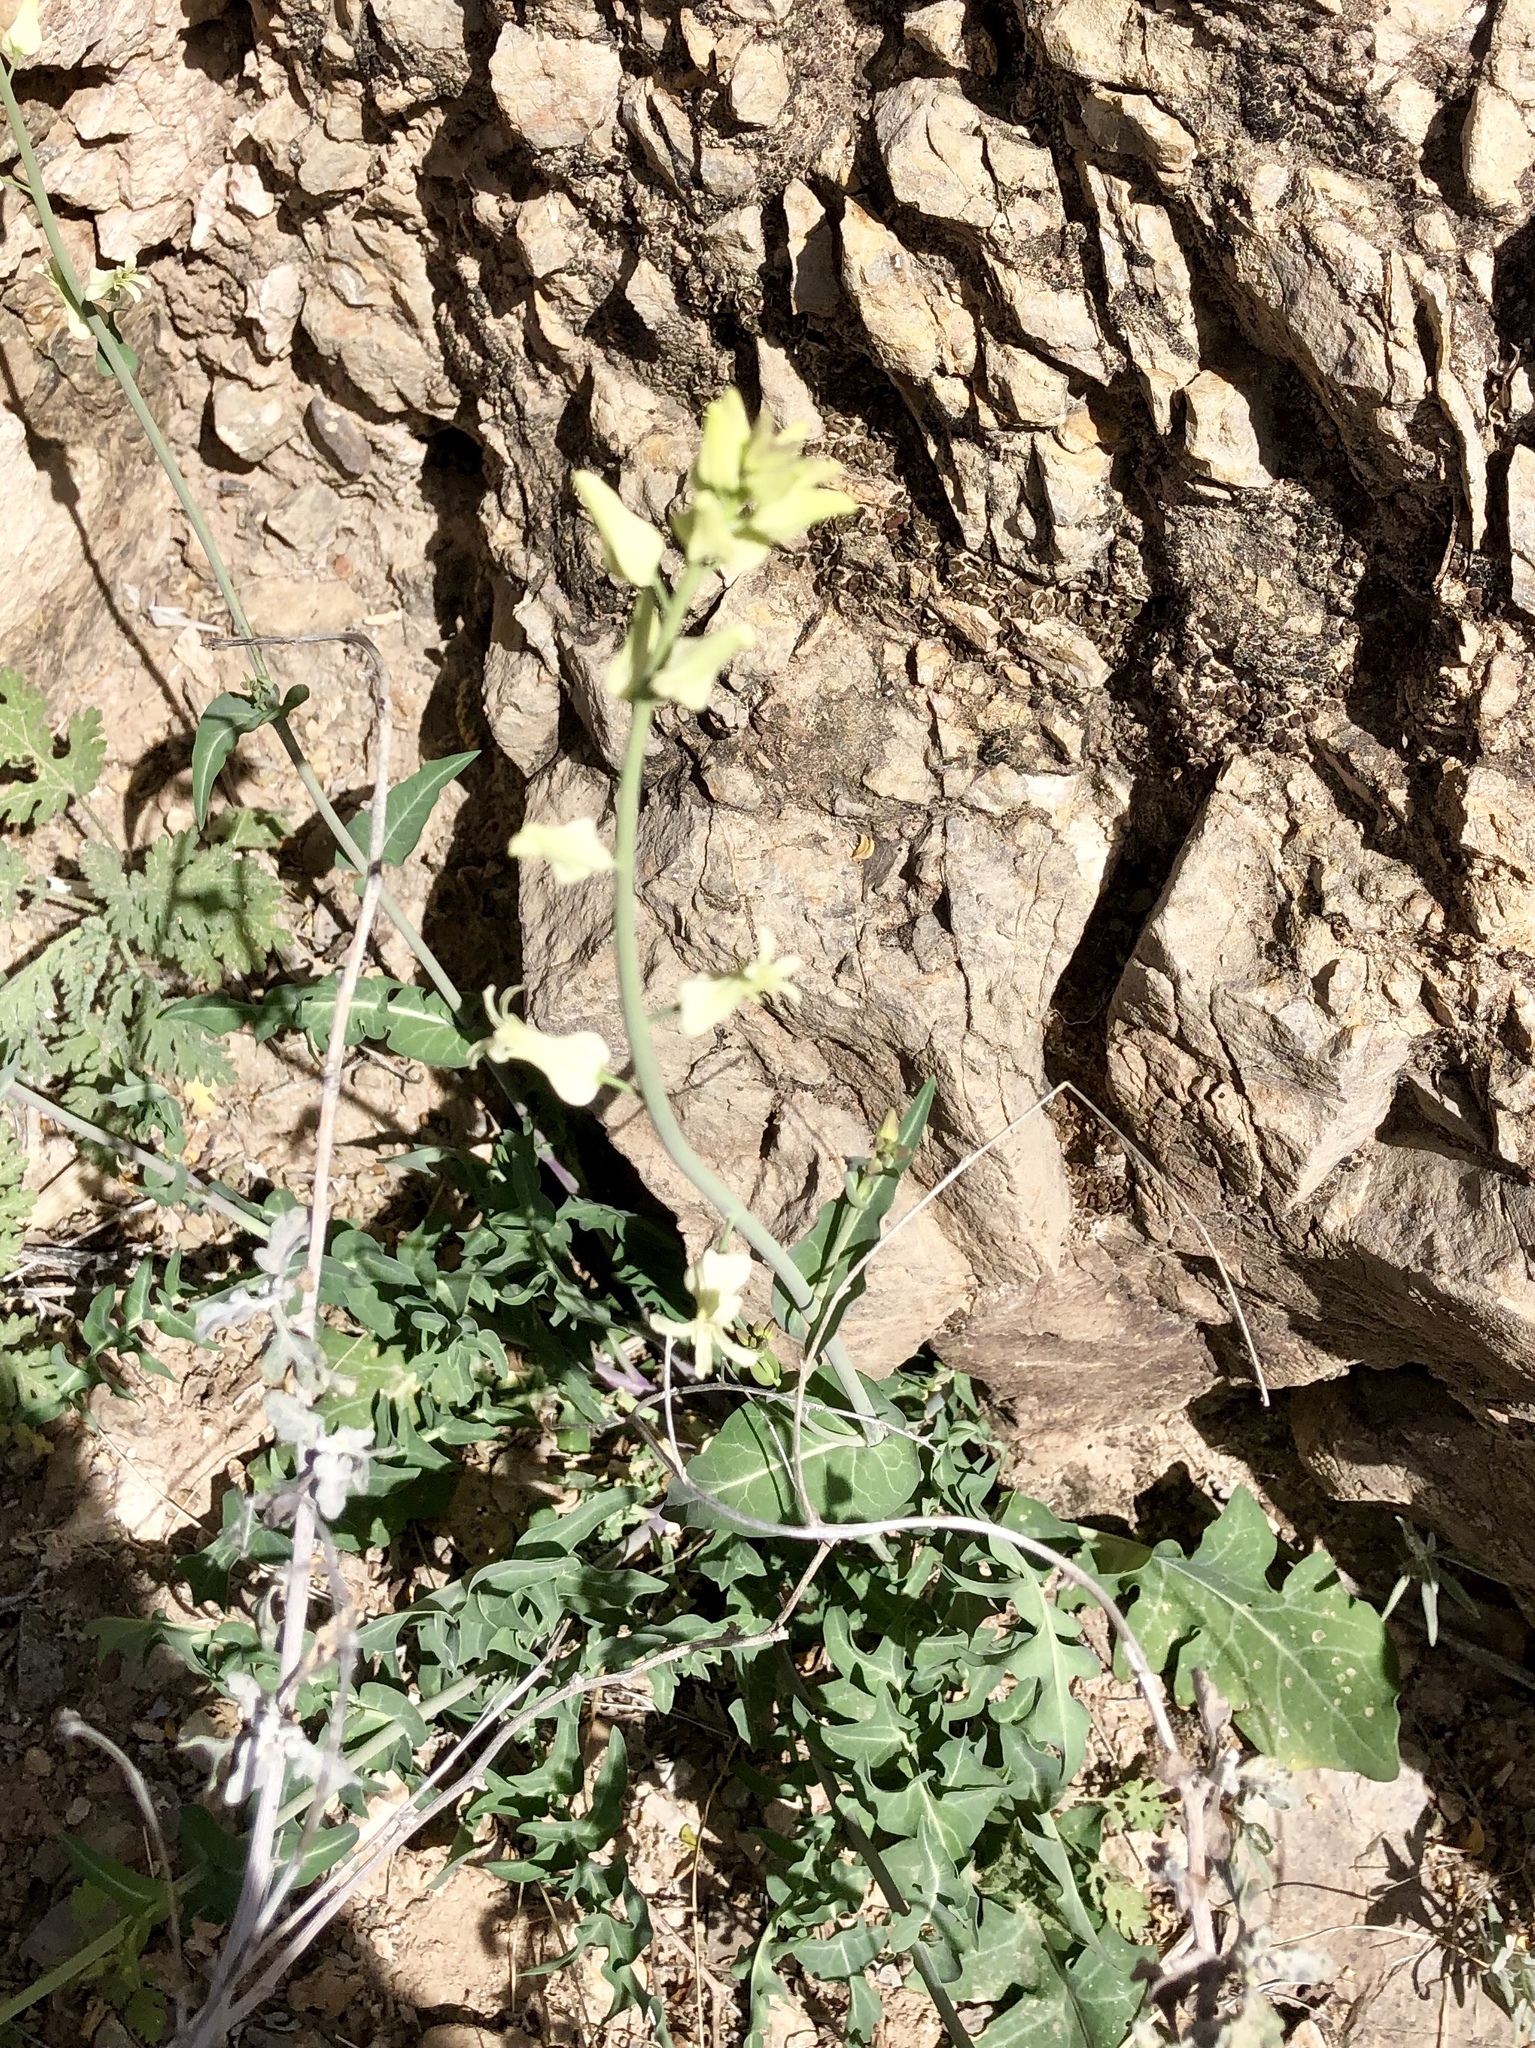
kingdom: Plantae
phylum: Tracheophyta
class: Magnoliopsida
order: Brassicales
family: Brassicaceae
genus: Streptanthus
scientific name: Streptanthus carinatus
